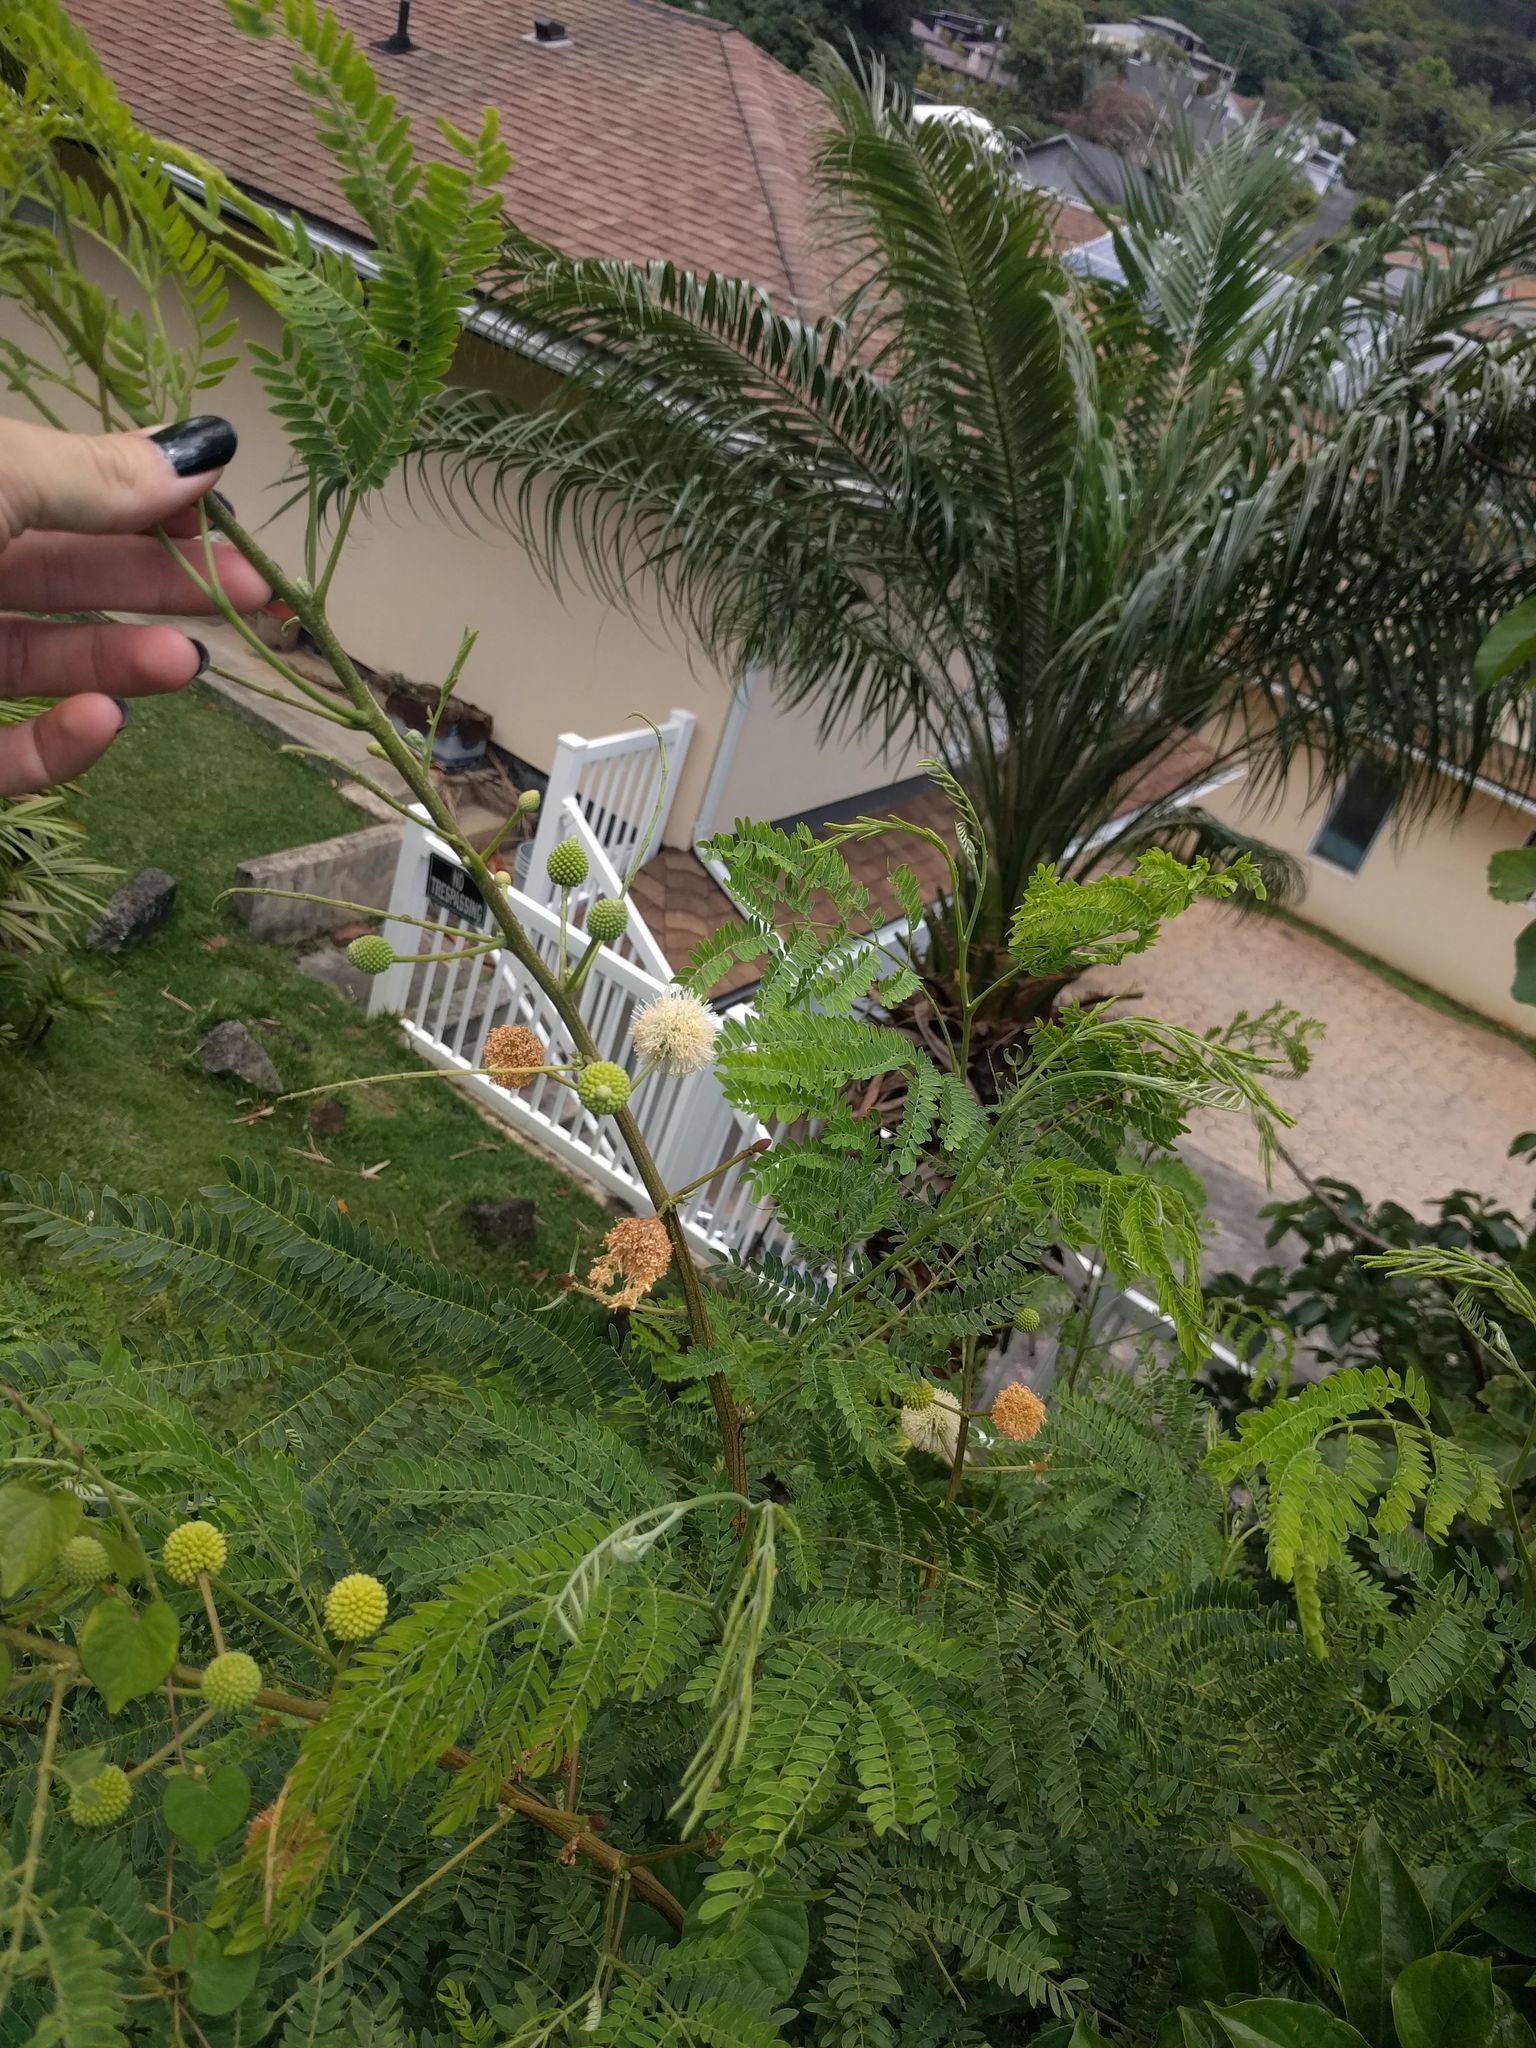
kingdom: Plantae
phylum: Tracheophyta
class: Magnoliopsida
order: Fabales
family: Fabaceae
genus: Leucaena
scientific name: Leucaena leucocephala
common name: White leadtree
